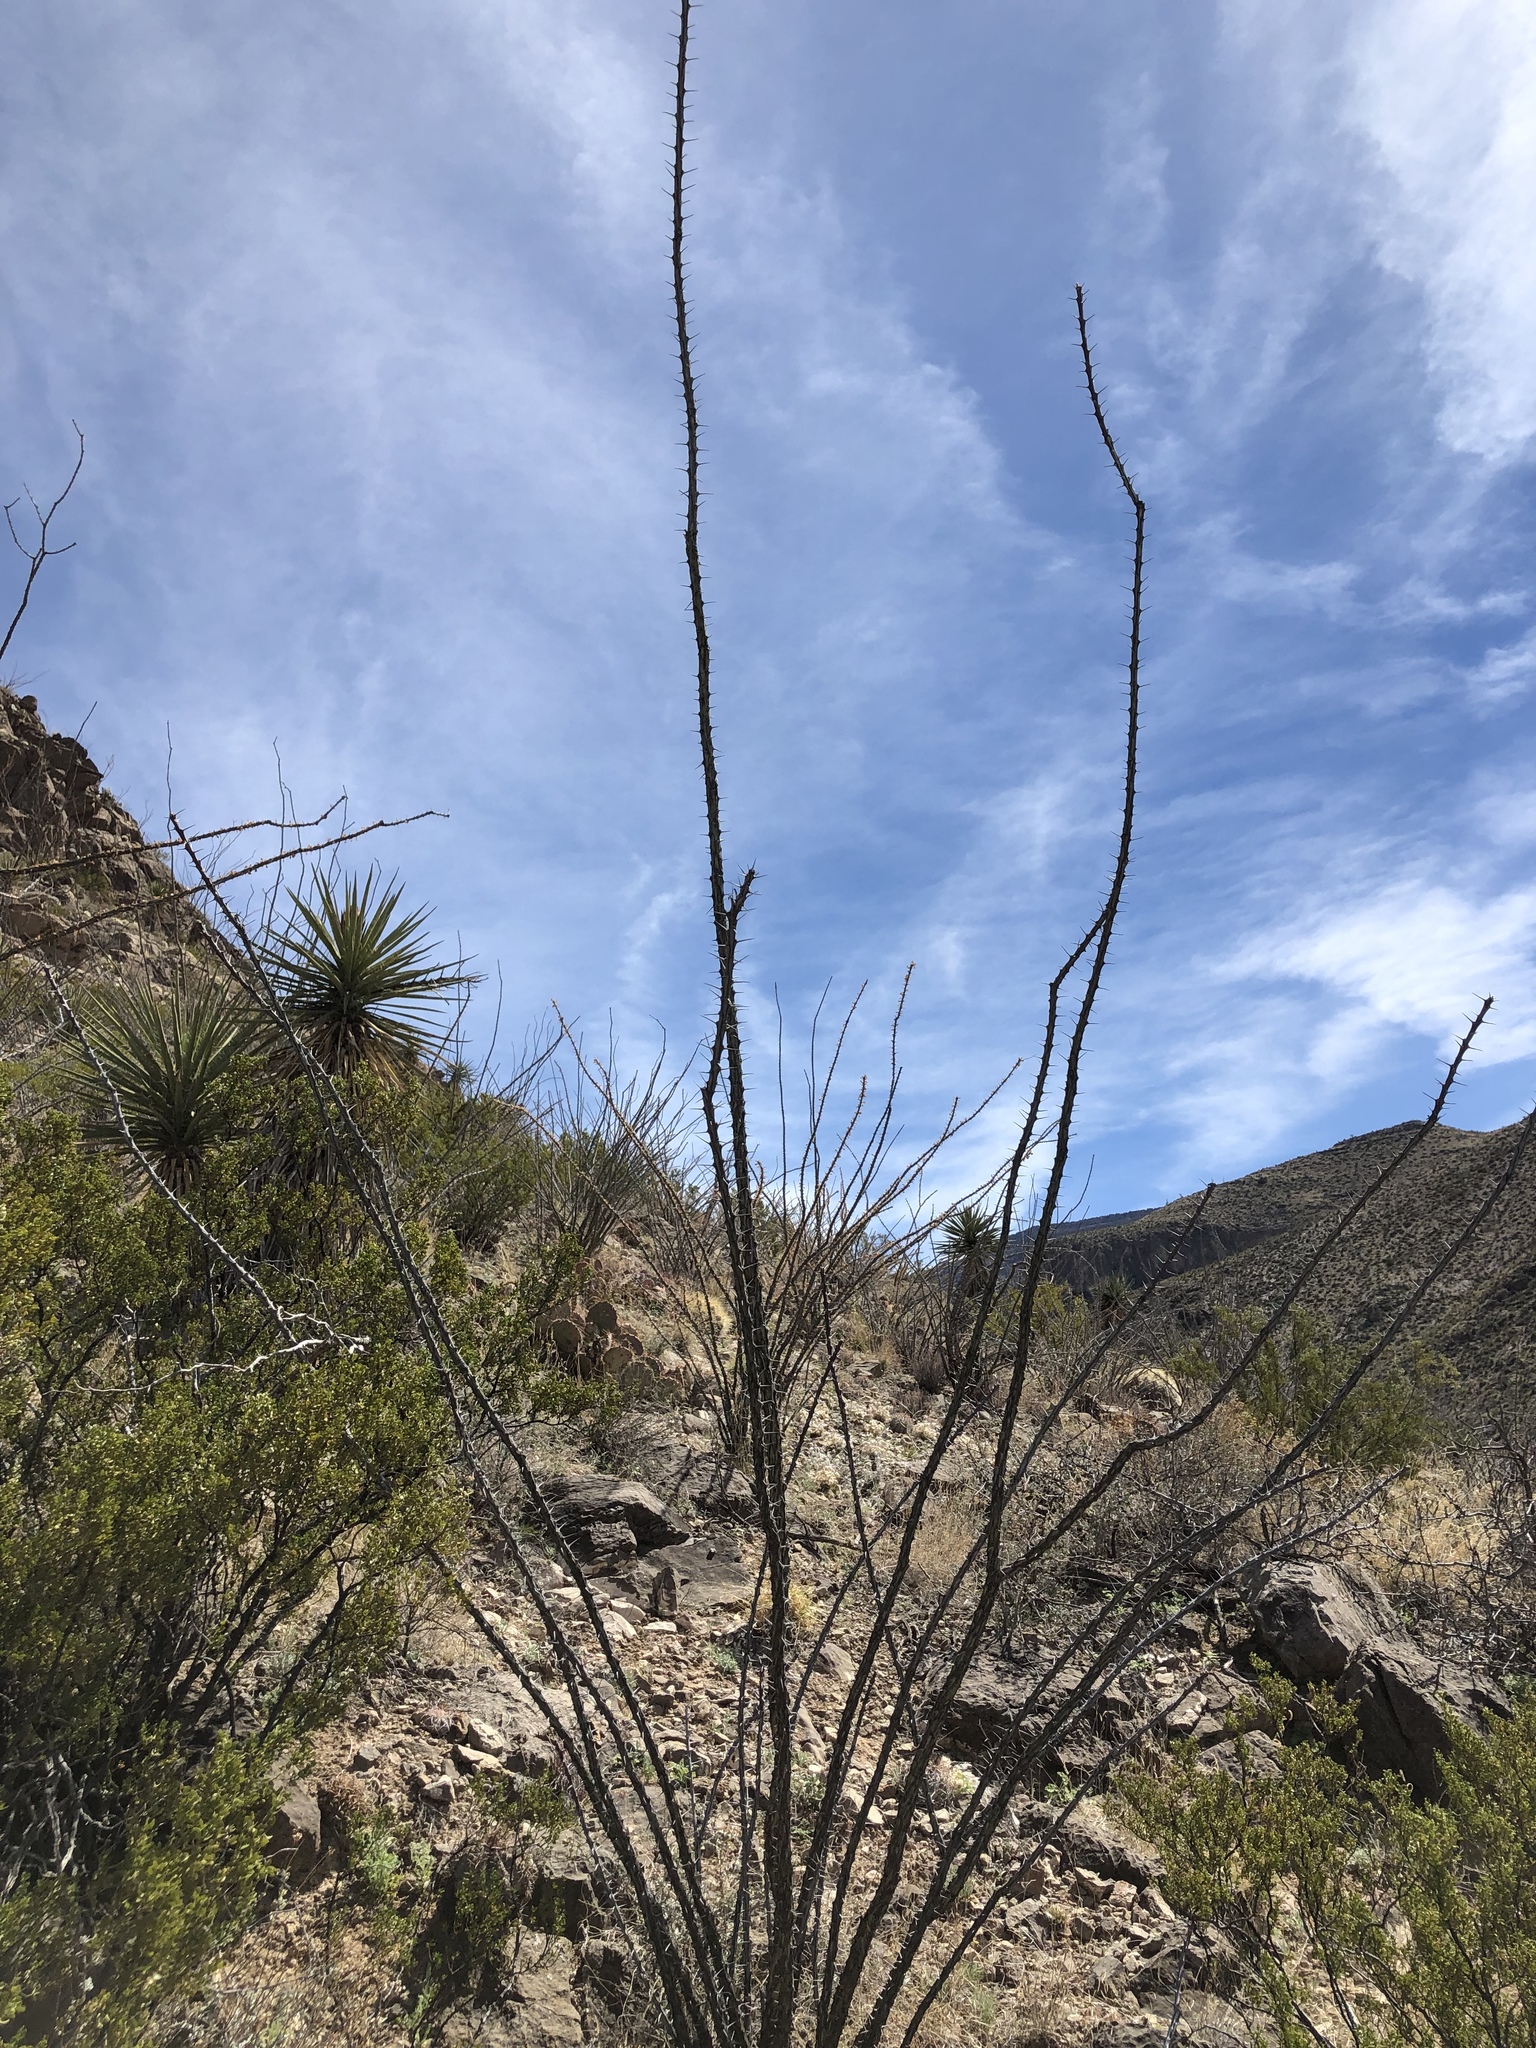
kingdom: Plantae
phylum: Tracheophyta
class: Magnoliopsida
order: Ericales
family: Fouquieriaceae
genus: Fouquieria
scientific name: Fouquieria splendens
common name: Vine-cactus
